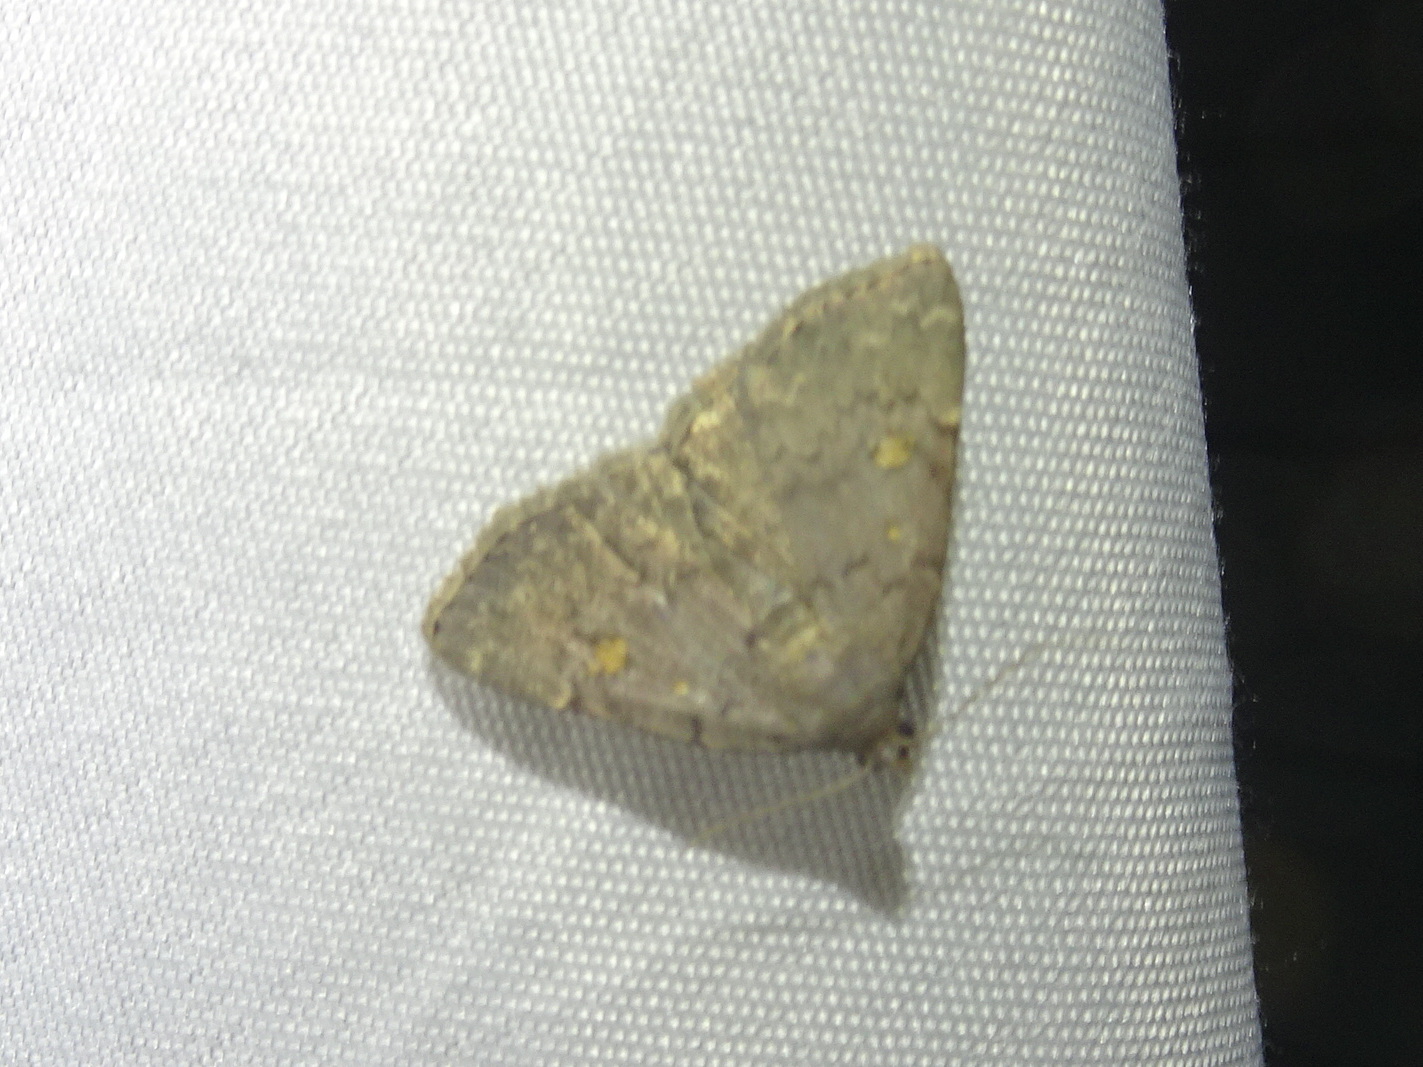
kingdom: Animalia
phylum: Arthropoda
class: Insecta
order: Lepidoptera
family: Erebidae
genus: Idia
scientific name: Idia aemula
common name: Common idia moth
